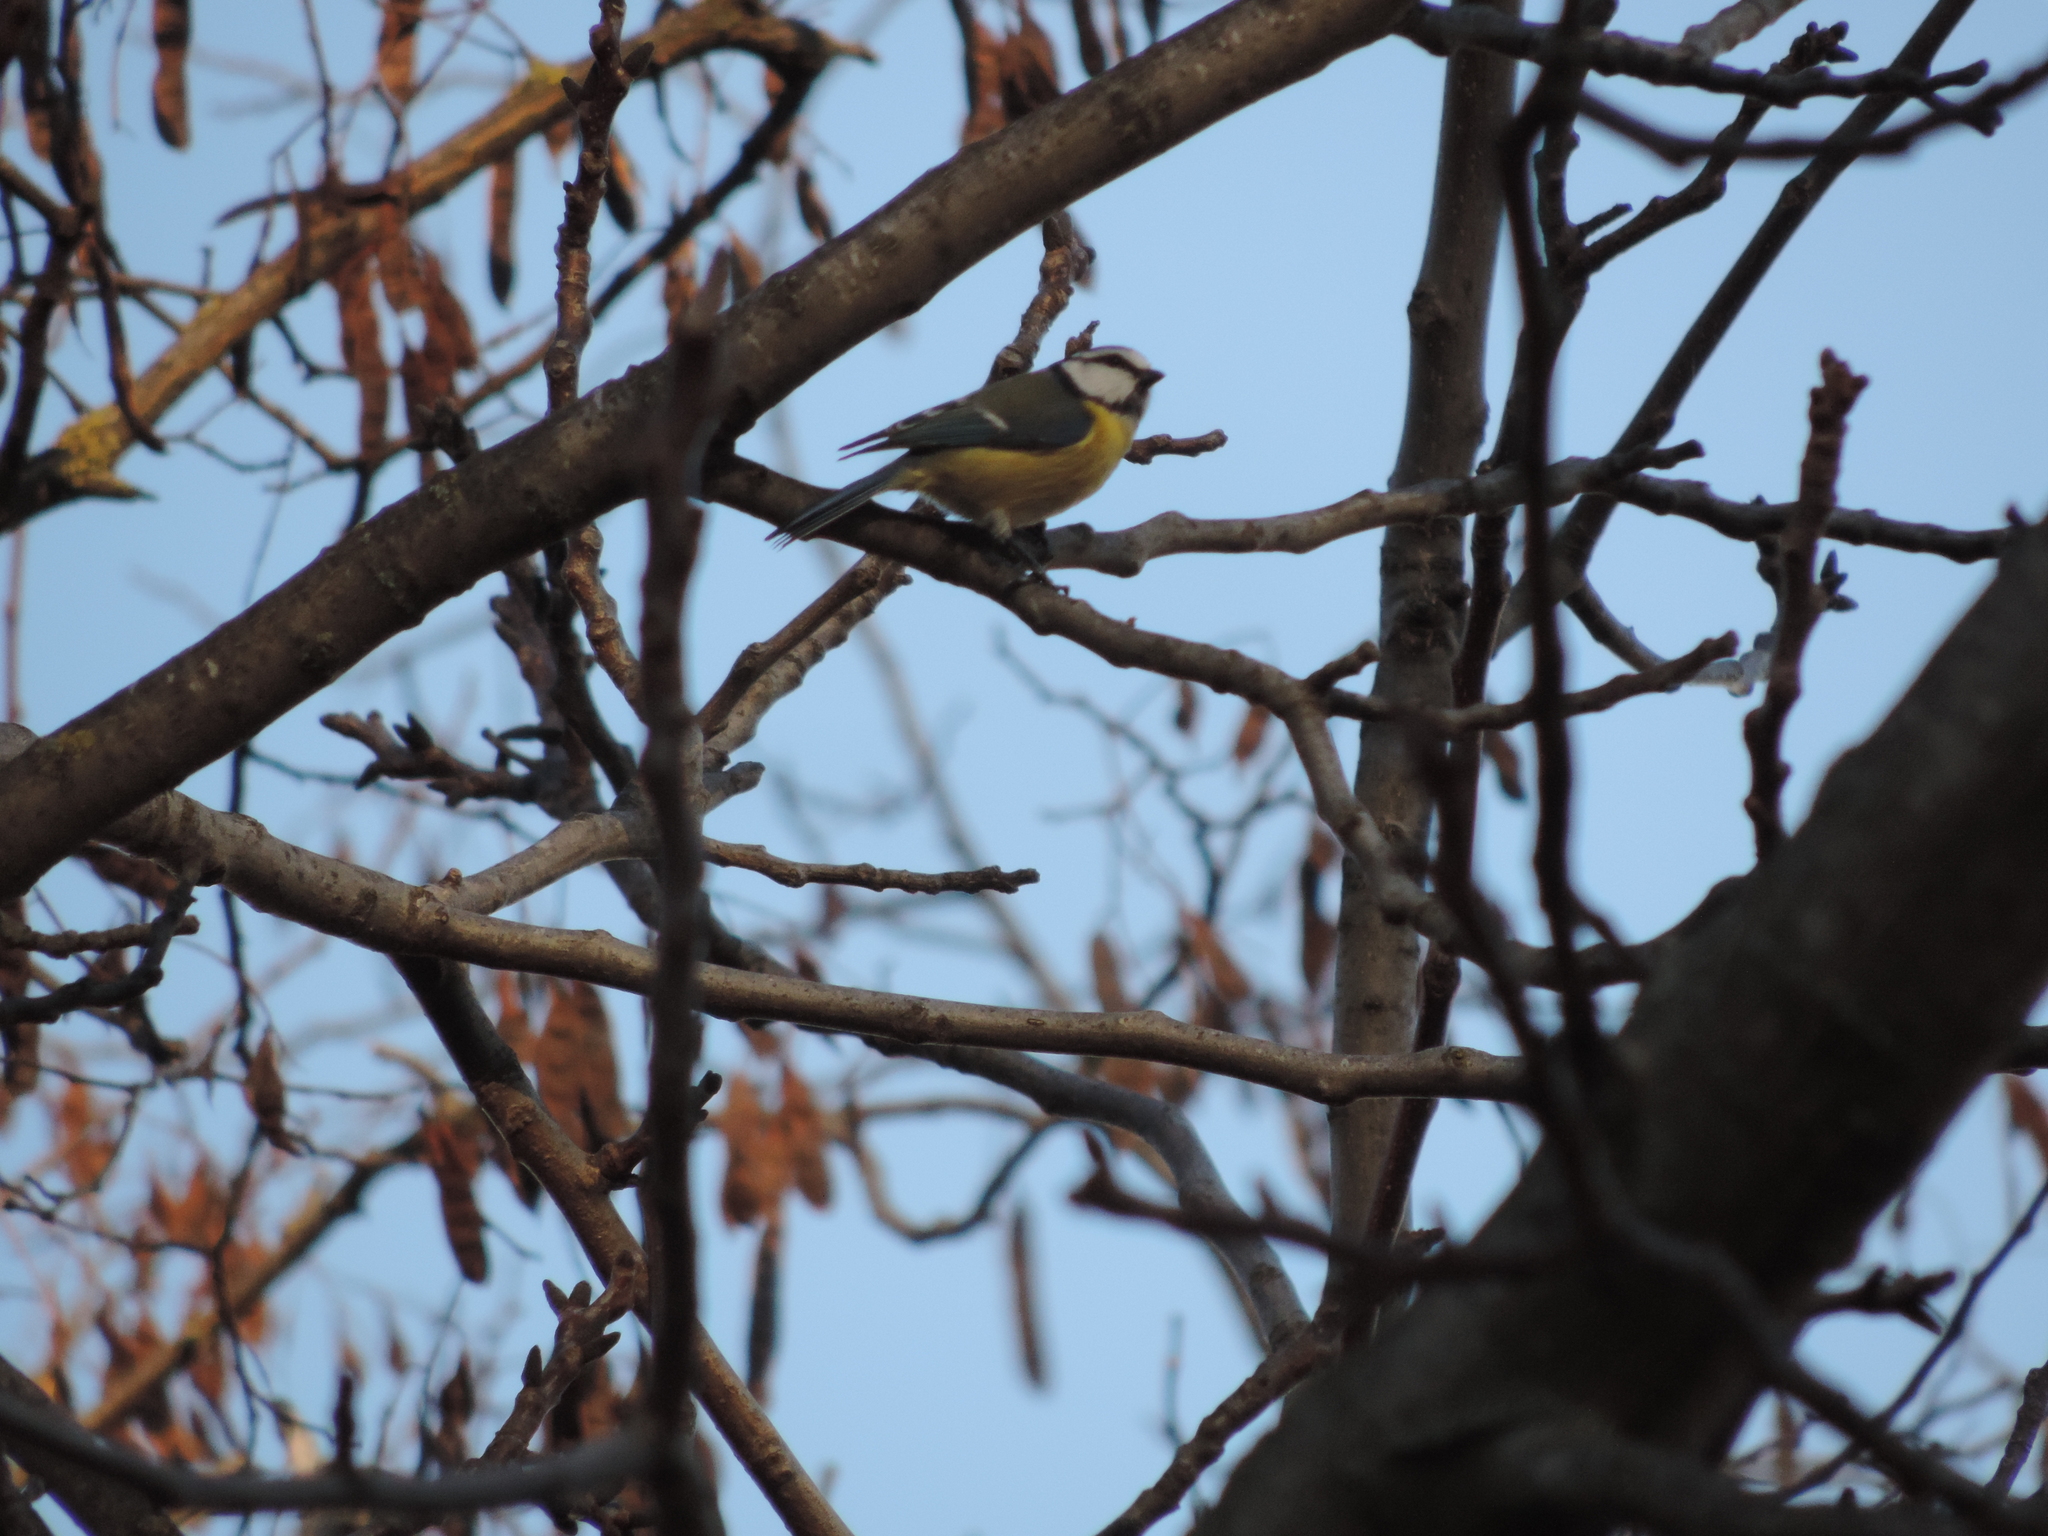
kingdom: Animalia
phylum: Chordata
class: Aves
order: Passeriformes
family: Paridae
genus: Cyanistes
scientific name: Cyanistes caeruleus
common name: Eurasian blue tit
